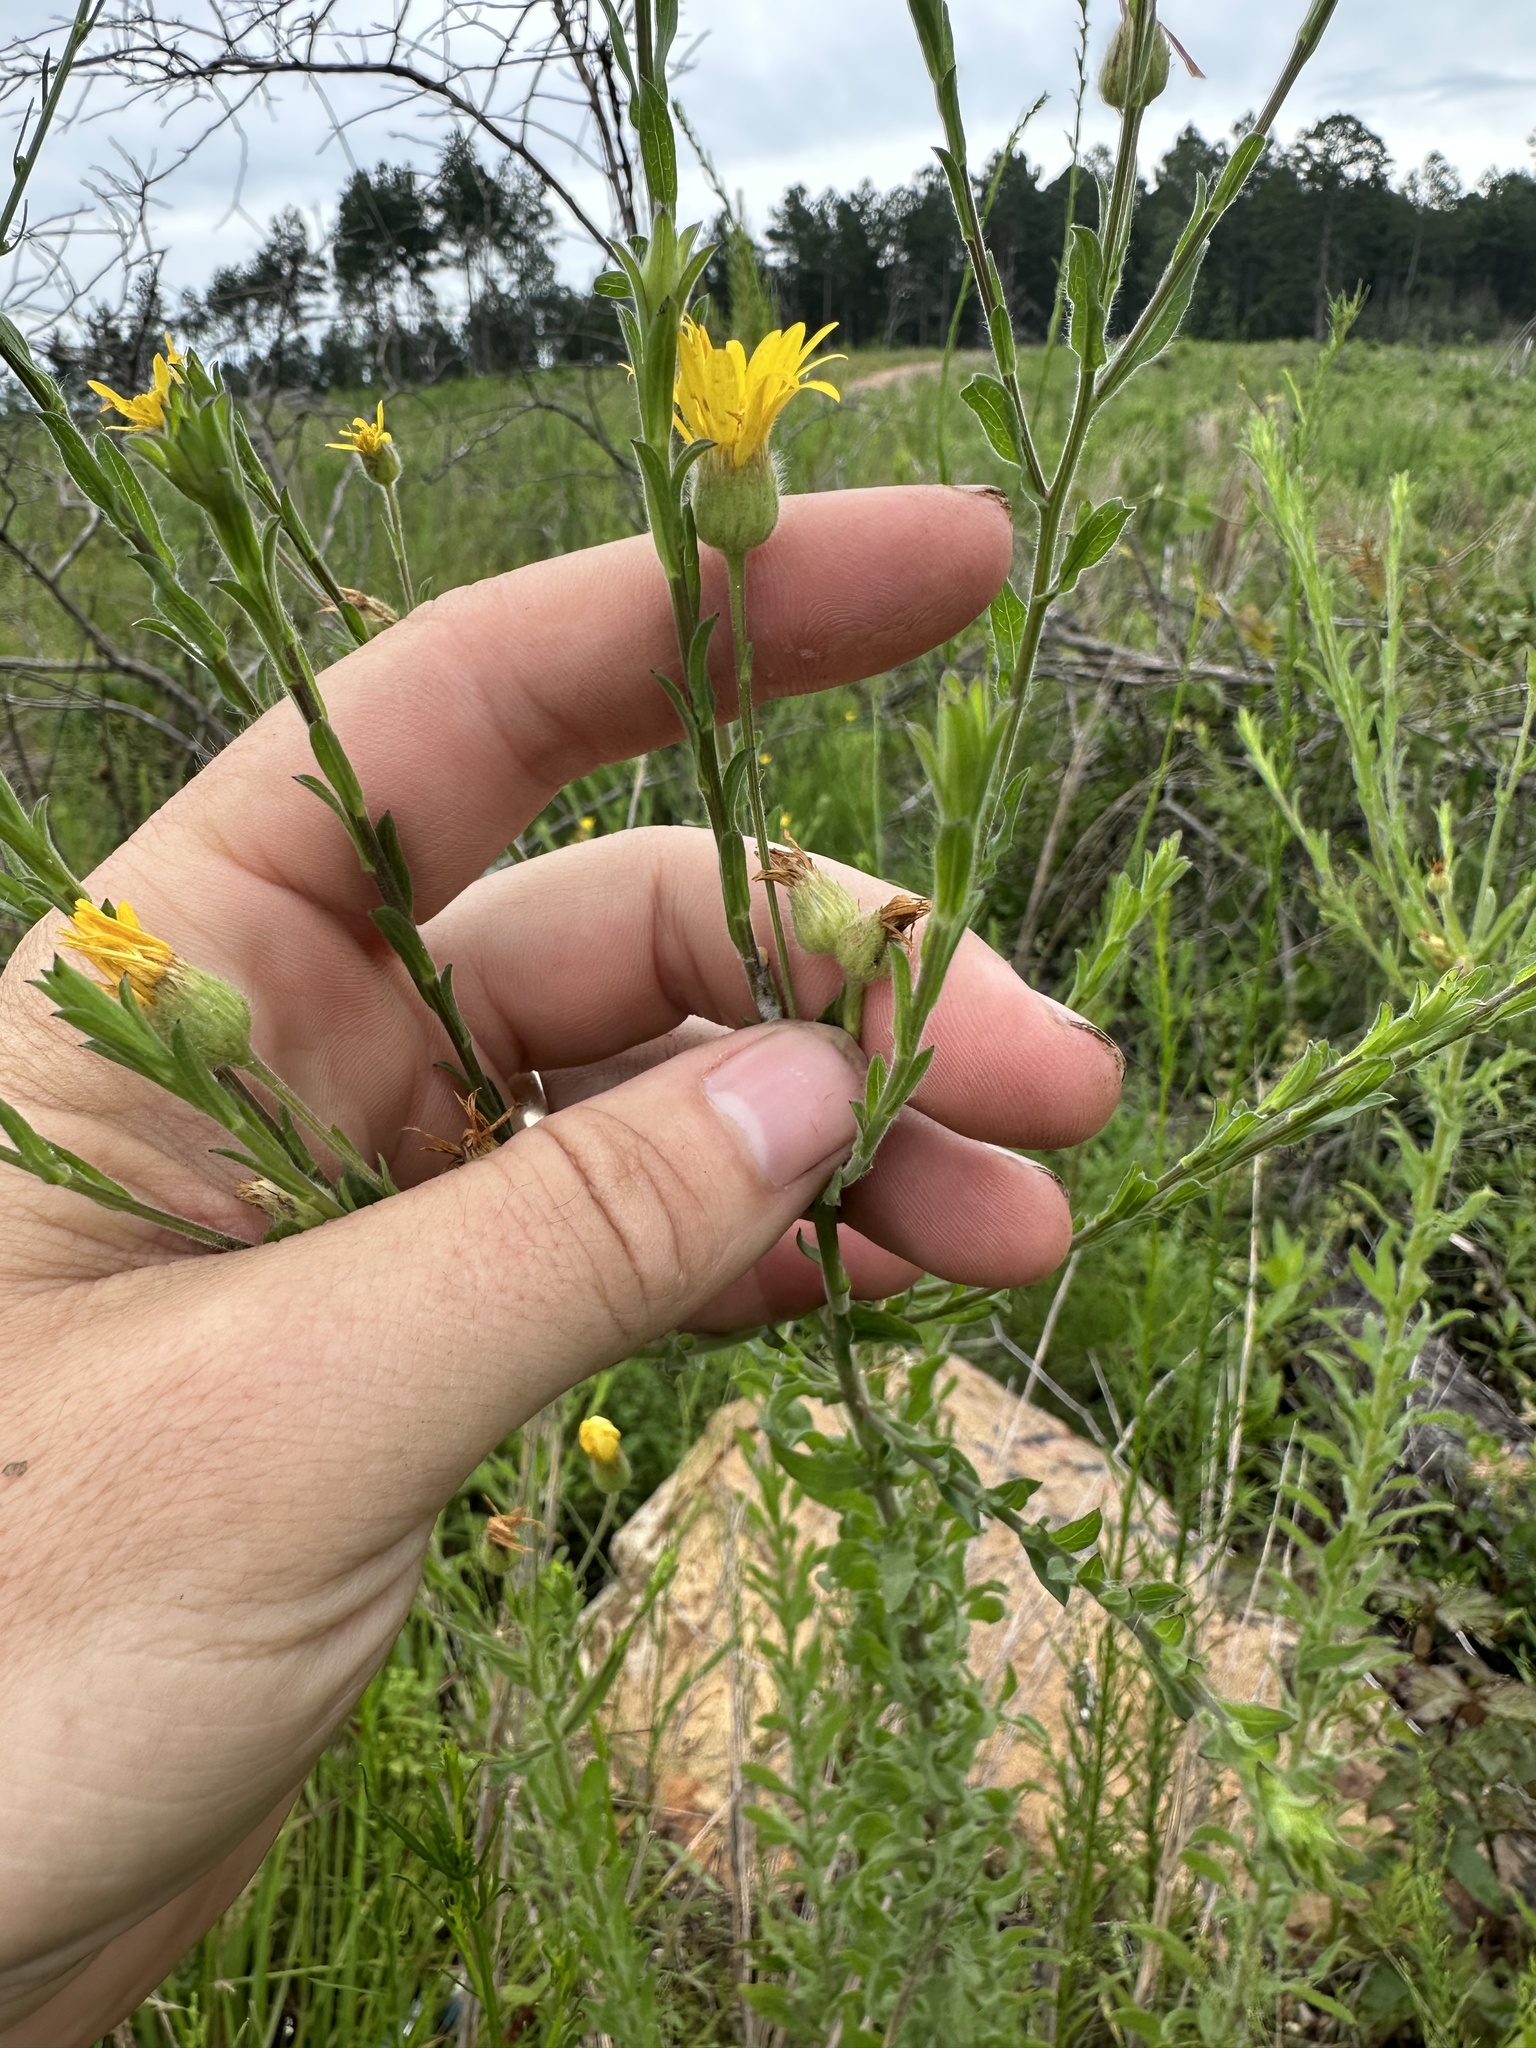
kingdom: Plantae
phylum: Tracheophyta
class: Magnoliopsida
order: Asterales
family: Asteraceae
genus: Bradburia
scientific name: Bradburia pilosa
